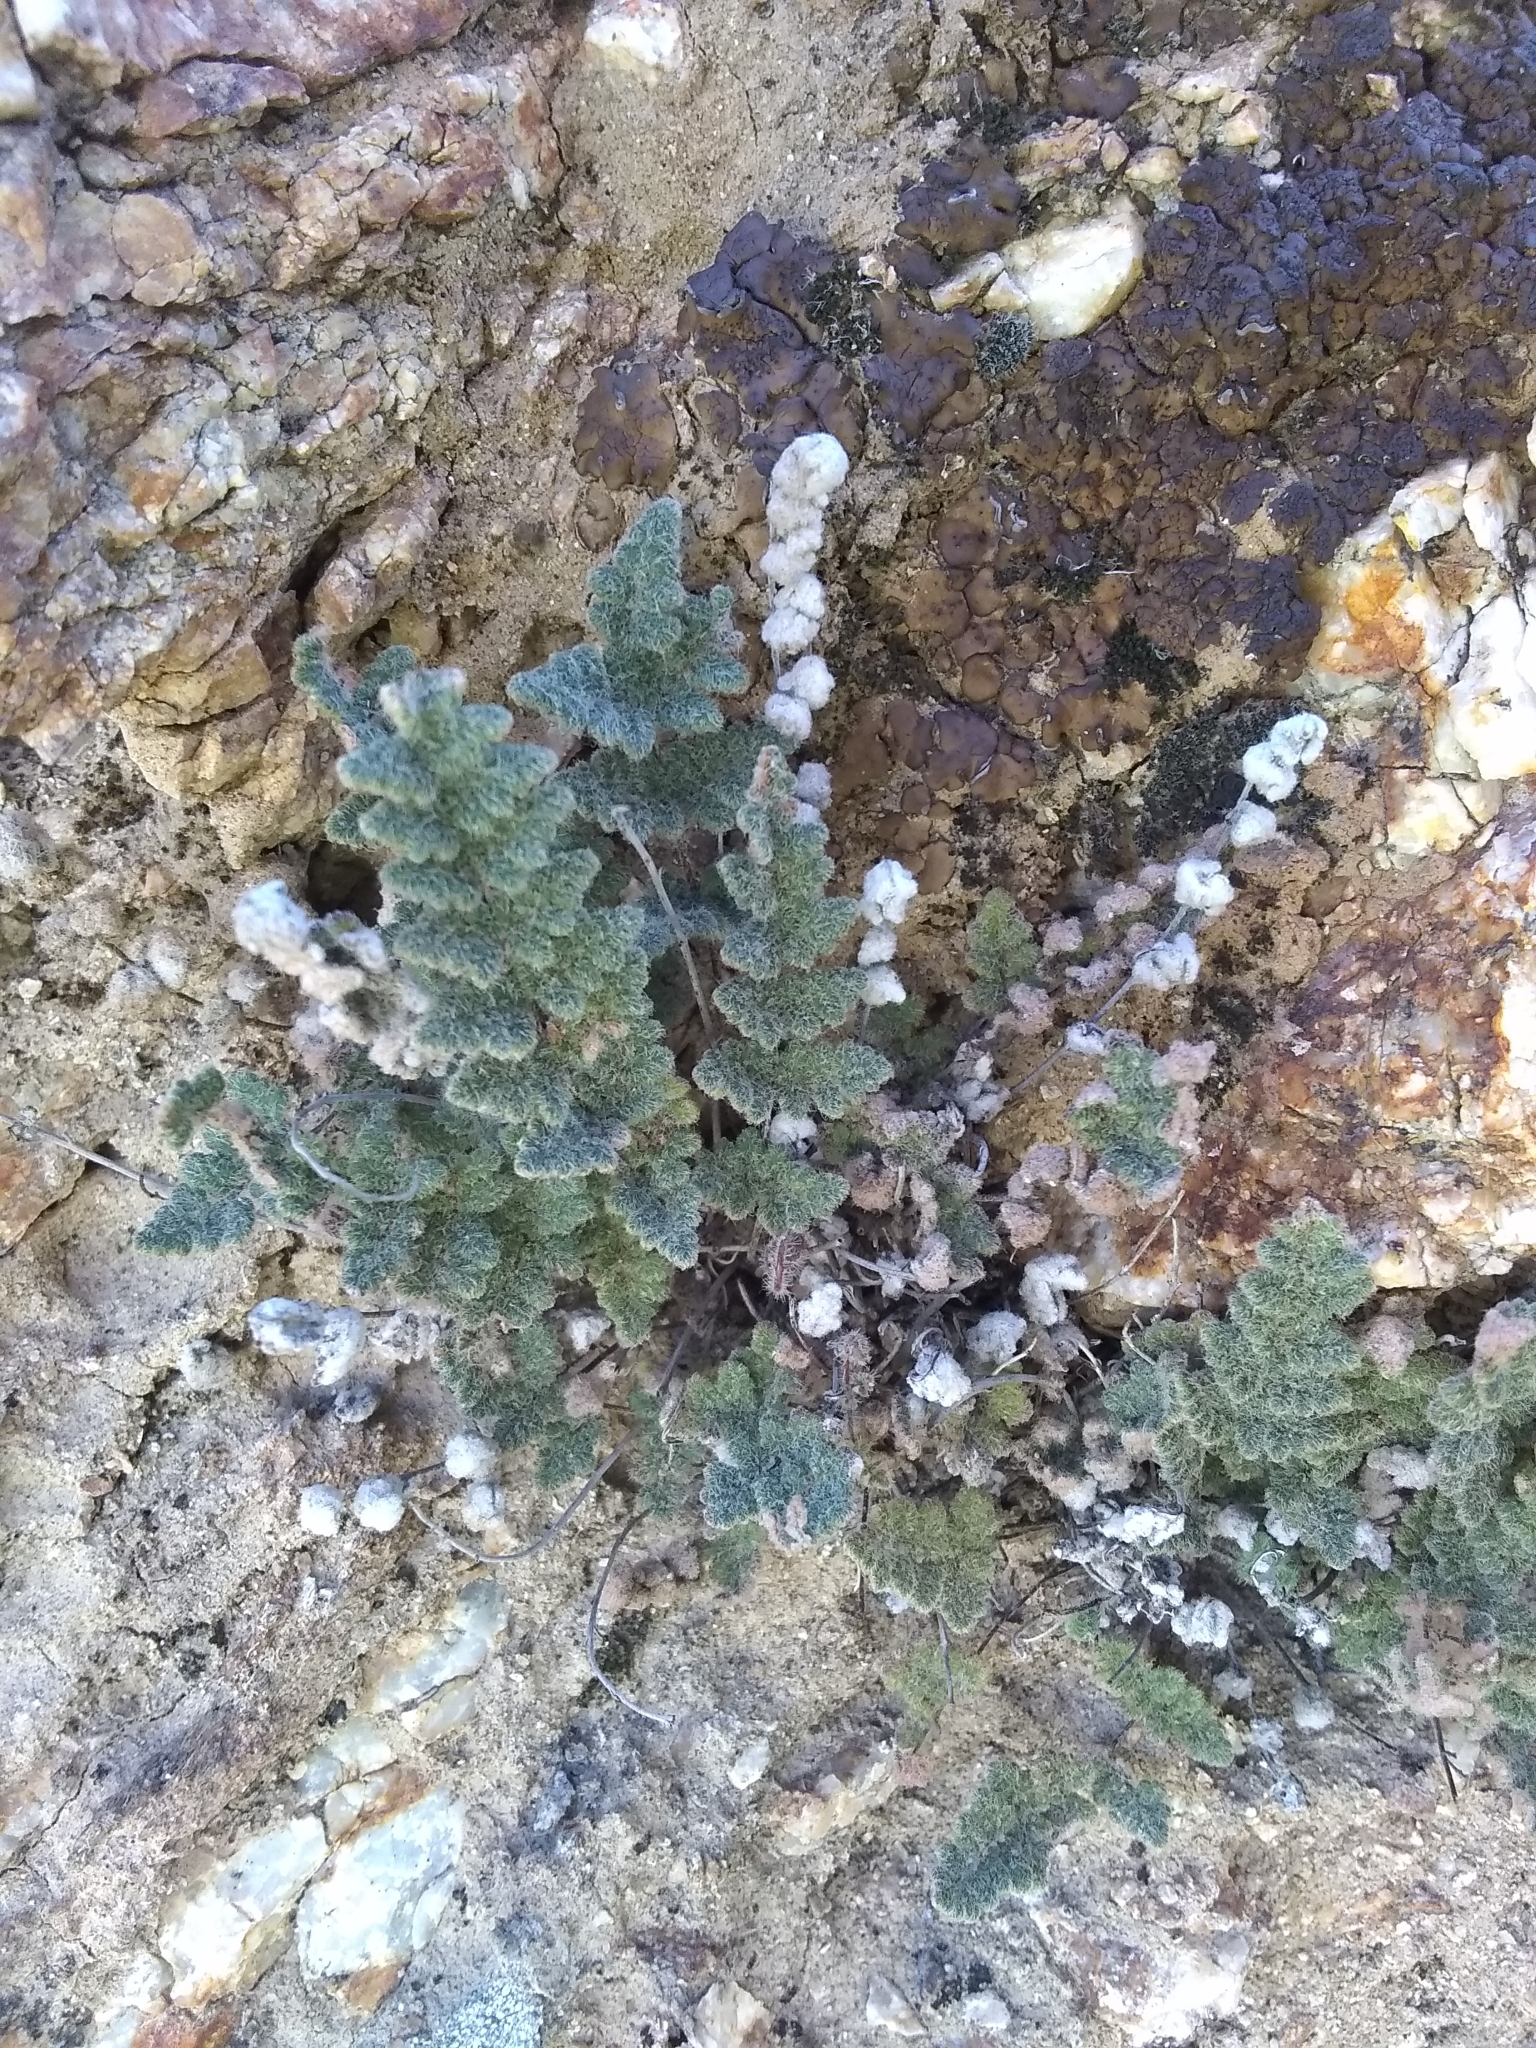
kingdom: Plantae
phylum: Tracheophyta
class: Polypodiopsida
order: Polypodiales
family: Pteridaceae
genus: Myriopteris
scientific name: Myriopteris parryi
